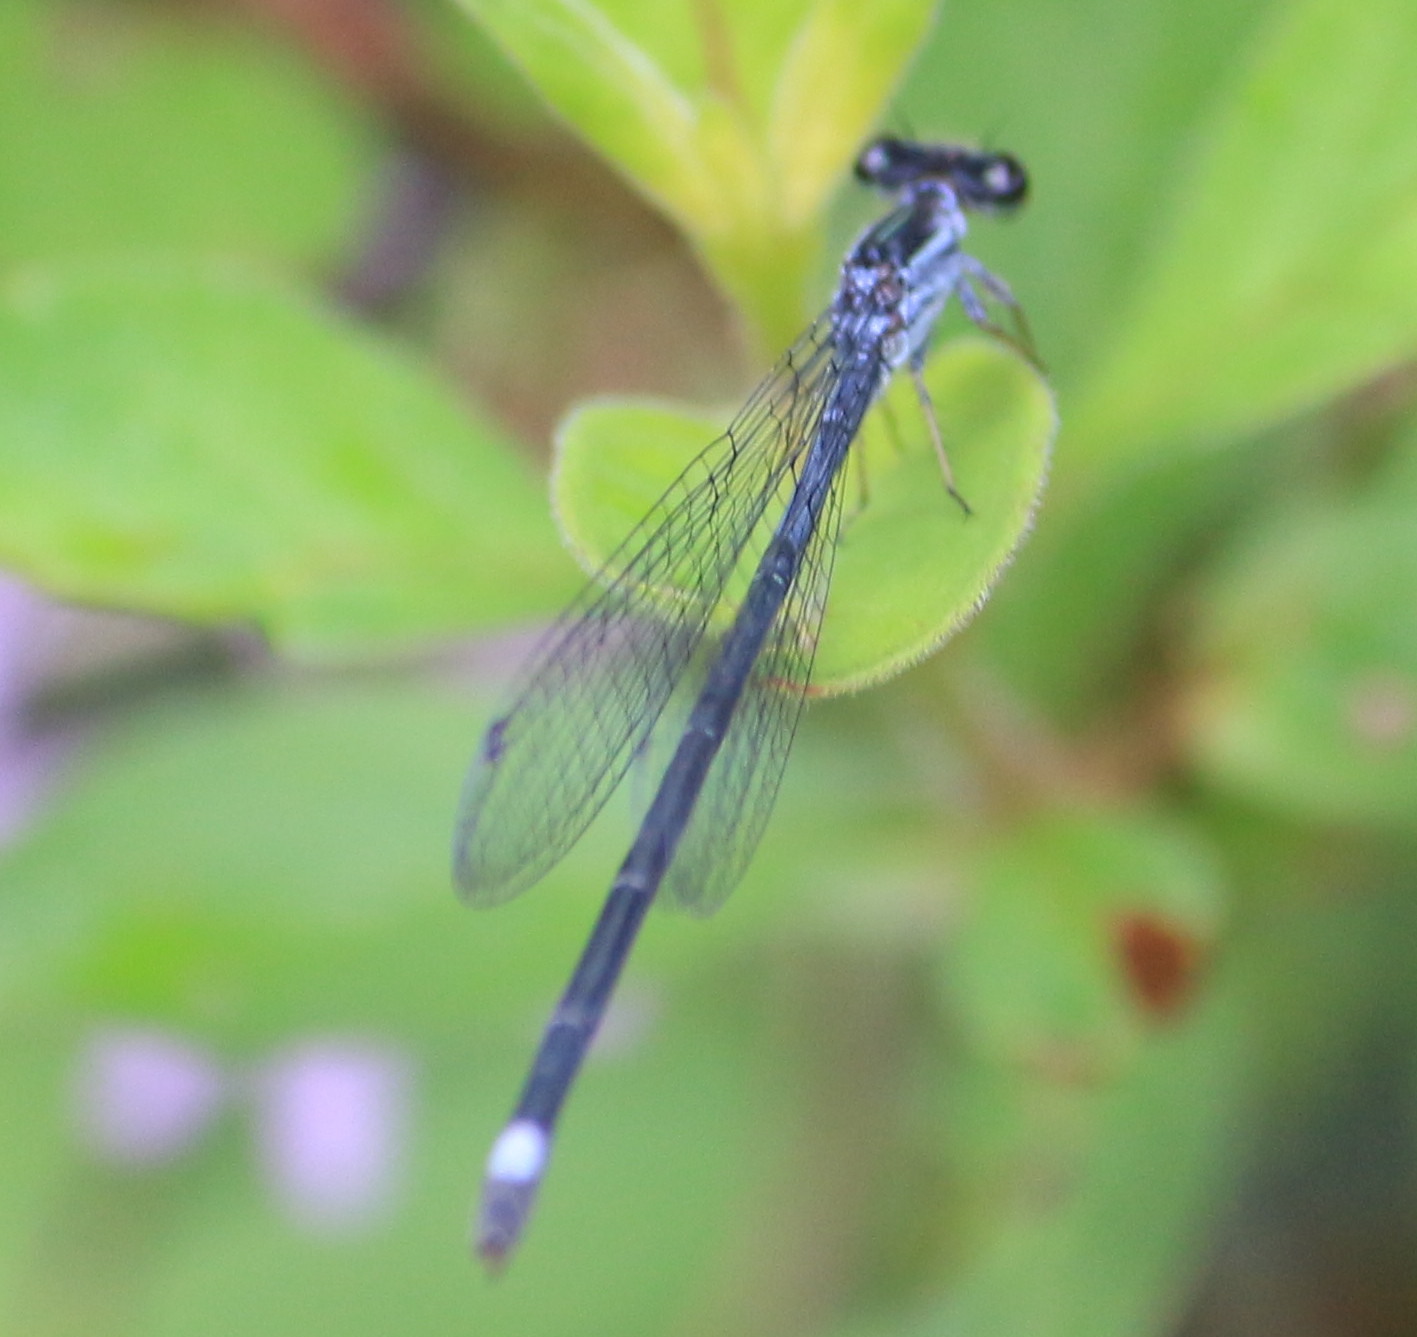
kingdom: Animalia
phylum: Arthropoda
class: Insecta
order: Odonata
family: Coenagrionidae
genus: Apanisagrion
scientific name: Apanisagrion lais
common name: Black-and-white damsel
